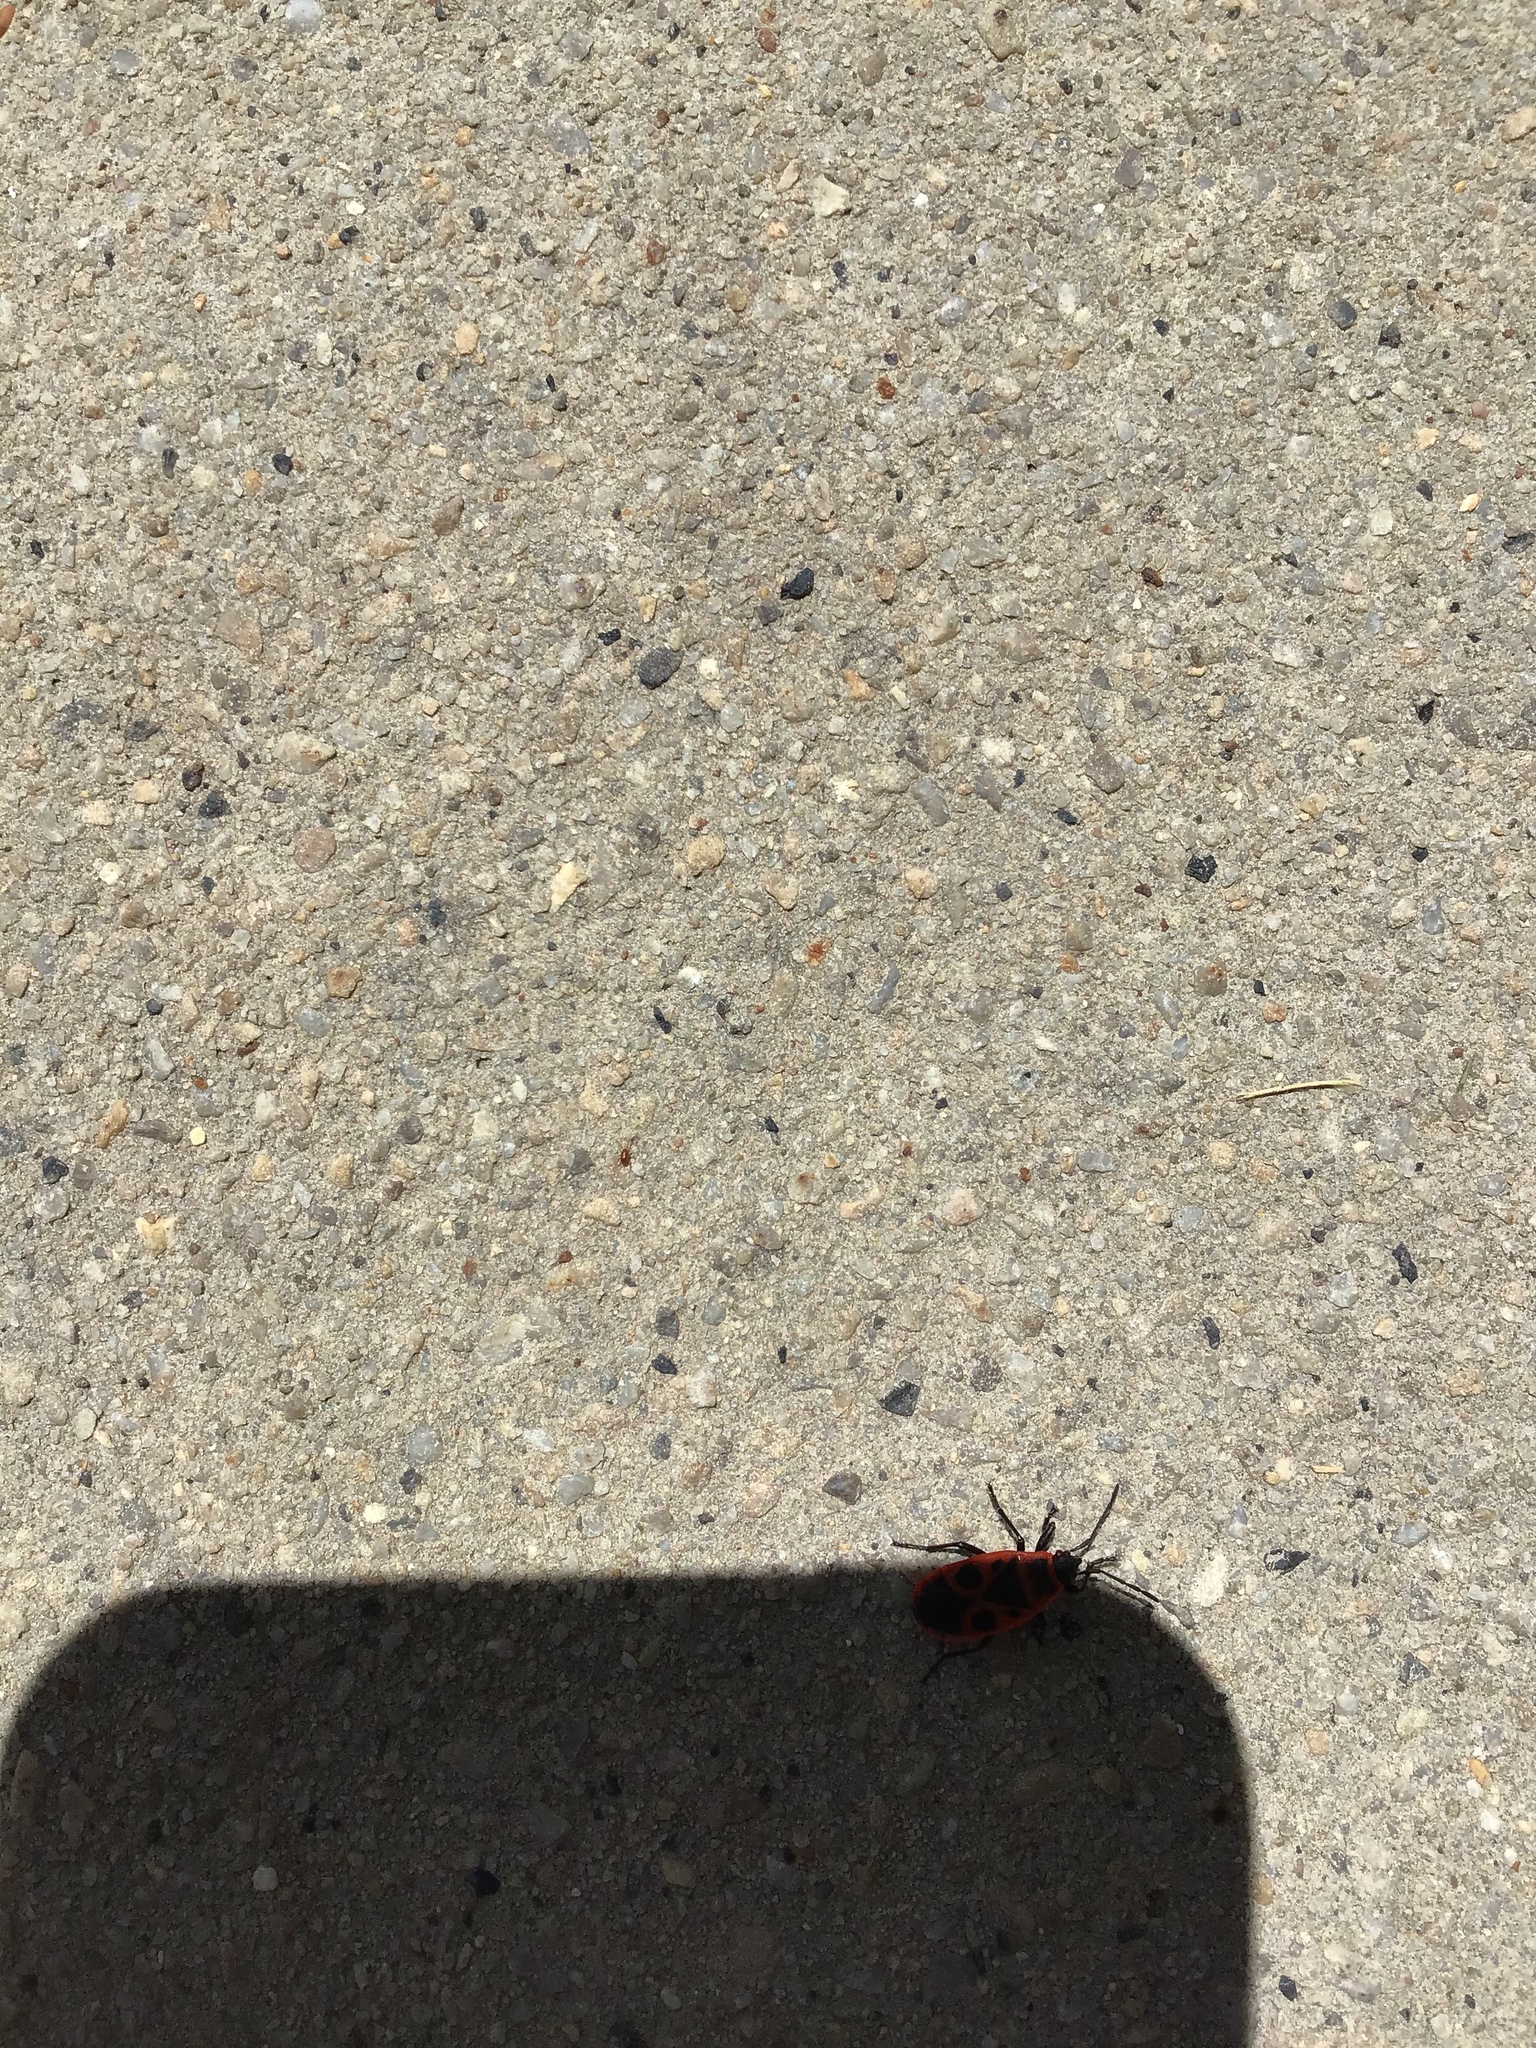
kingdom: Animalia
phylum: Arthropoda
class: Insecta
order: Hemiptera
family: Pyrrhocoridae
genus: Pyrrhocoris
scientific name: Pyrrhocoris apterus
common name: Firebug
